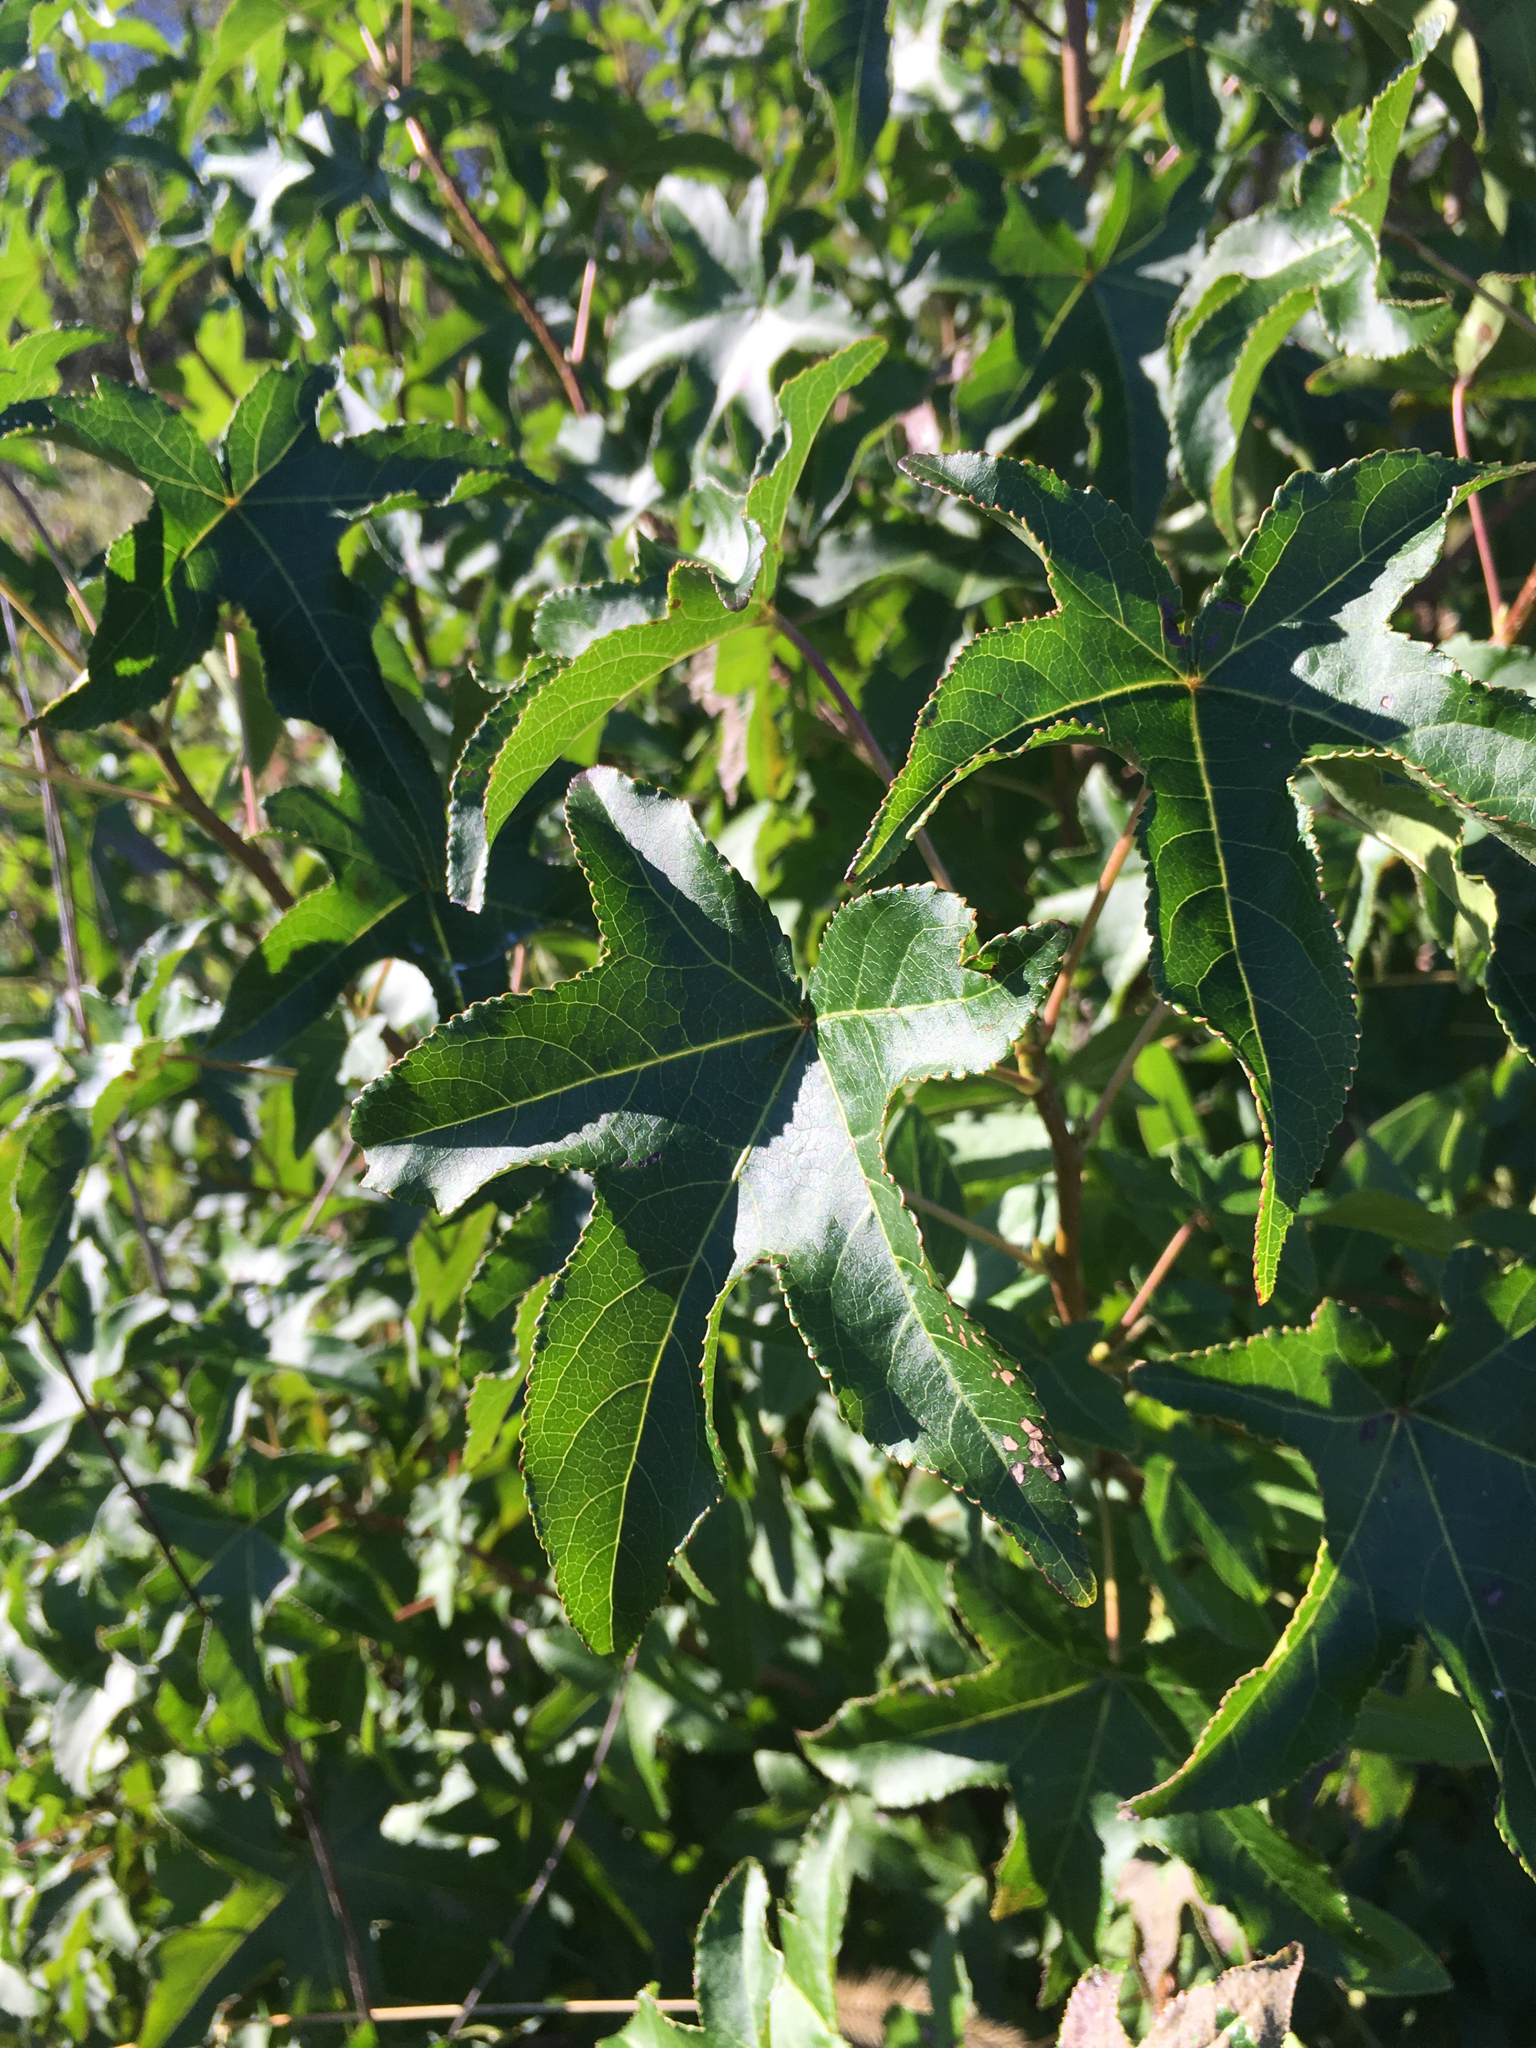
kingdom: Plantae
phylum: Tracheophyta
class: Magnoliopsida
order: Saxifragales
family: Altingiaceae
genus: Liquidambar
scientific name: Liquidambar styraciflua
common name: Sweet gum
